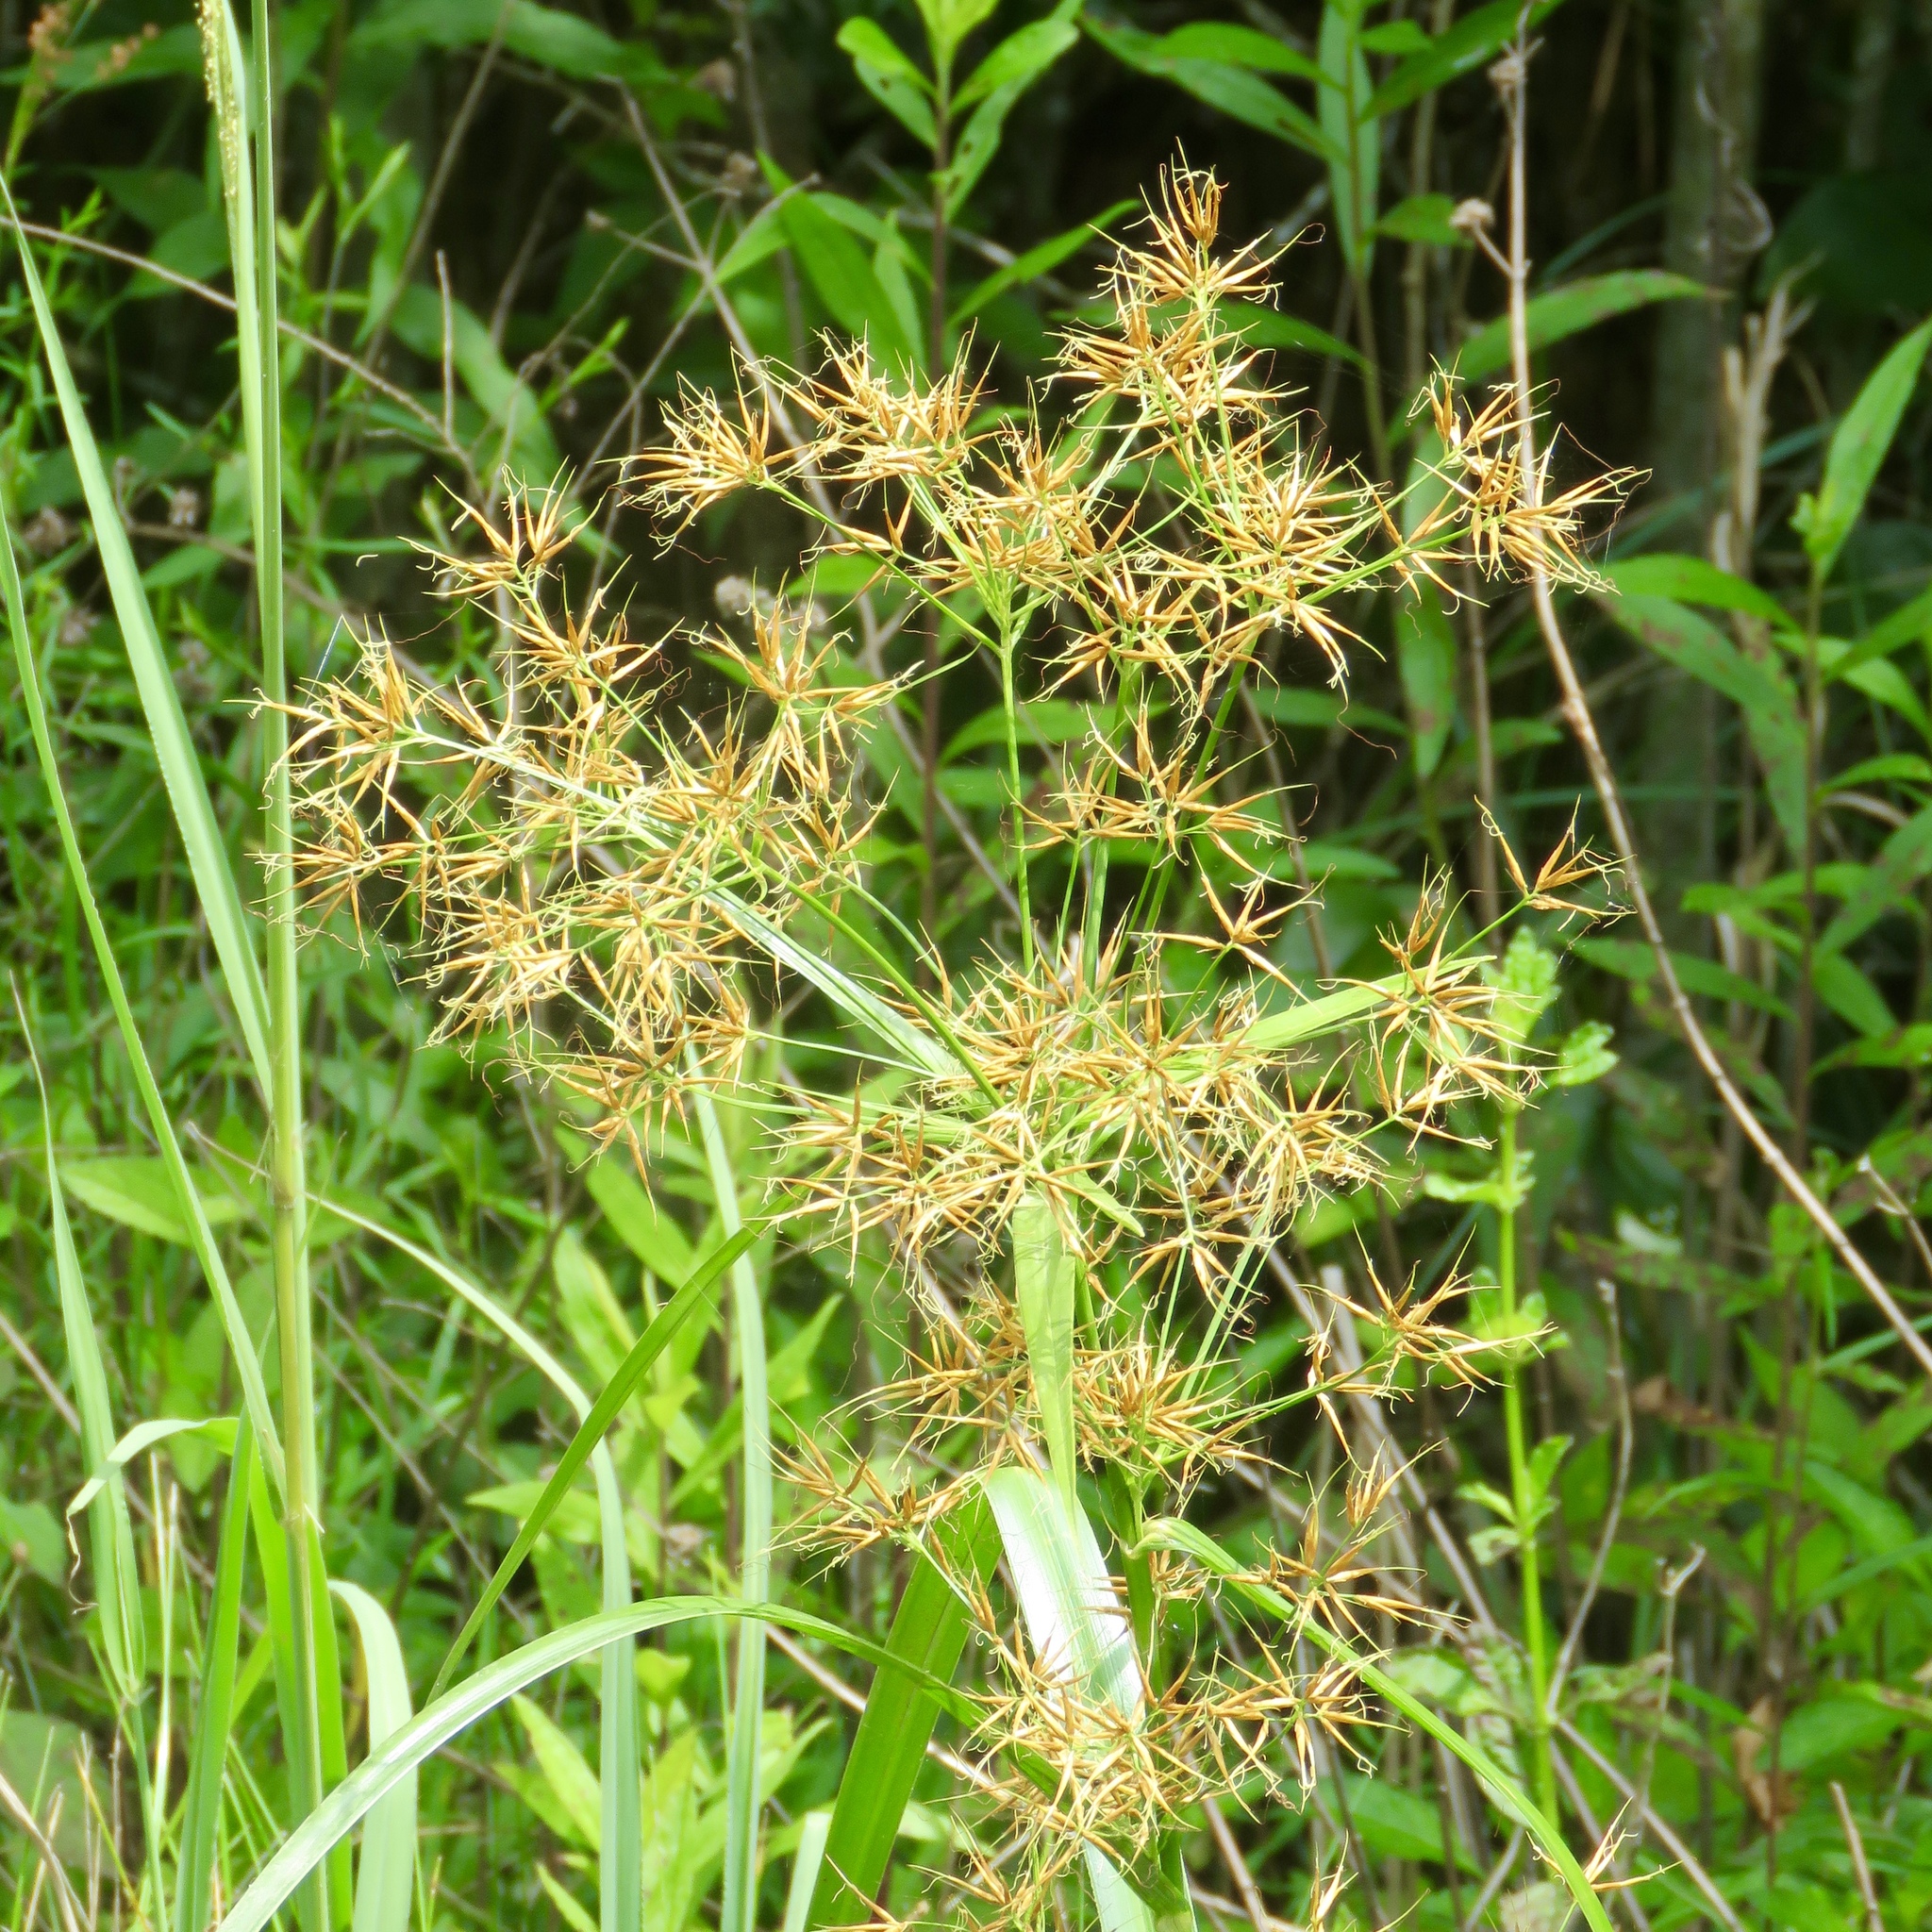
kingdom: Plantae
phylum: Tracheophyta
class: Liliopsida
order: Poales
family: Cyperaceae
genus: Rhynchospora
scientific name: Rhynchospora corniculata
